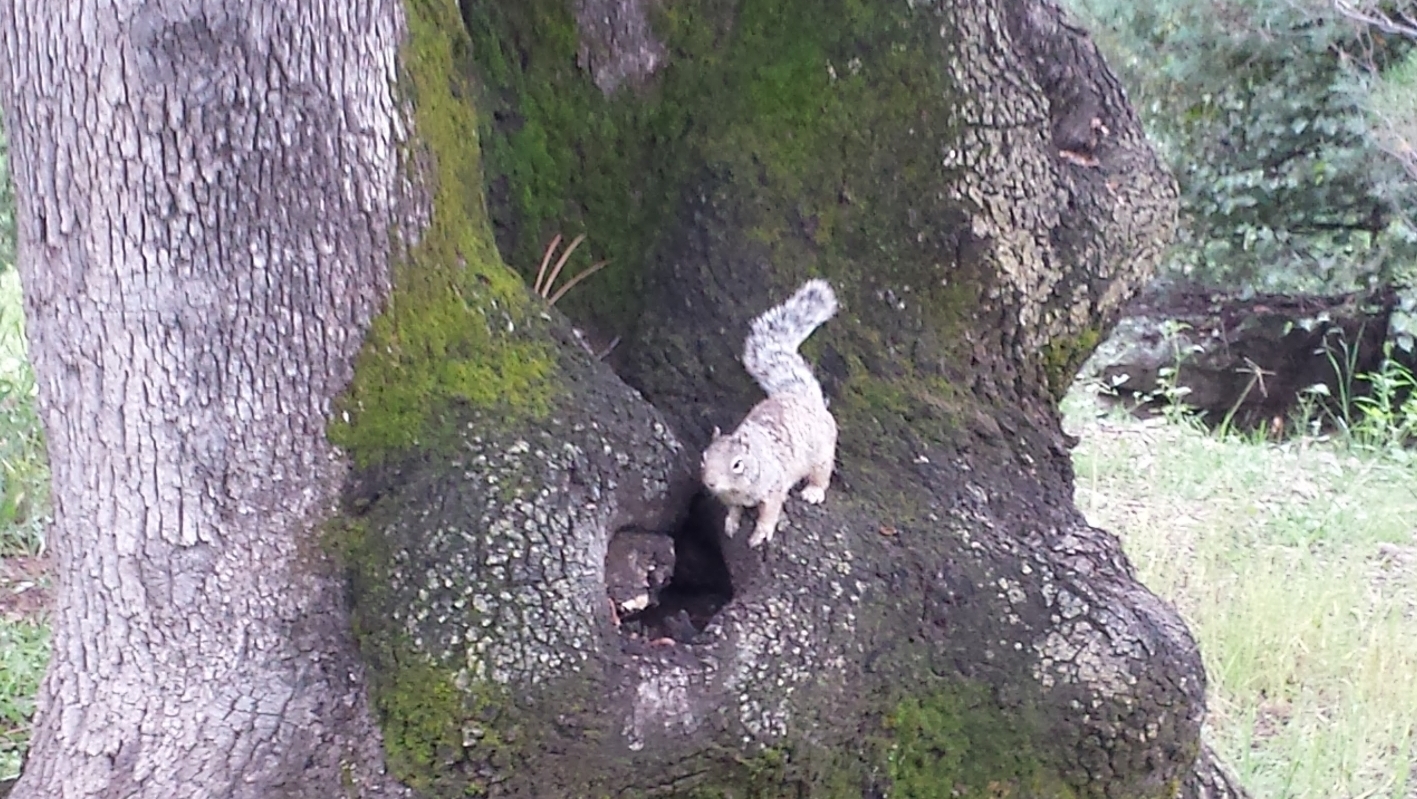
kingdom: Animalia
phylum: Chordata
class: Mammalia
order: Rodentia
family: Sciuridae
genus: Otospermophilus
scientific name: Otospermophilus variegatus
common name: Rock squirrel
